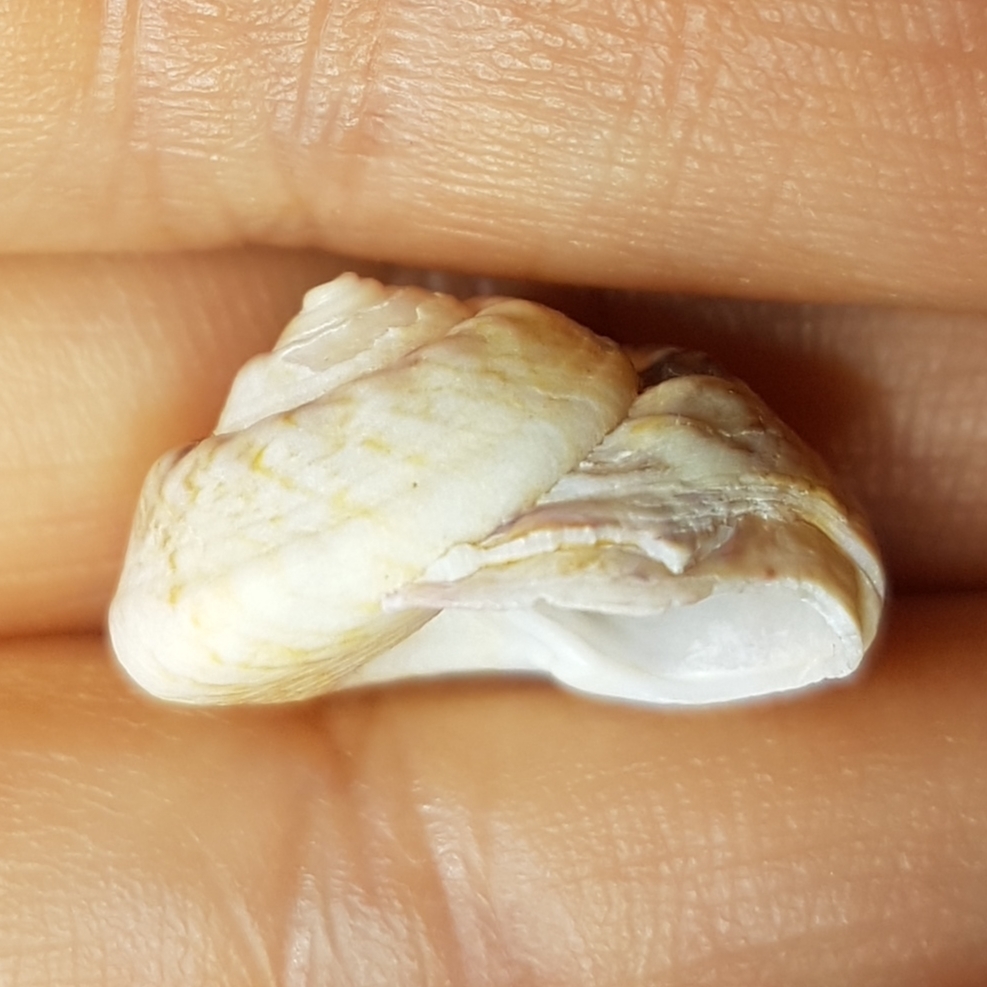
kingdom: Animalia
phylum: Mollusca
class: Gastropoda
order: Trochida
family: Trochidae
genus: Gibbula
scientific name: Gibbula magus
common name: Turban top shell
